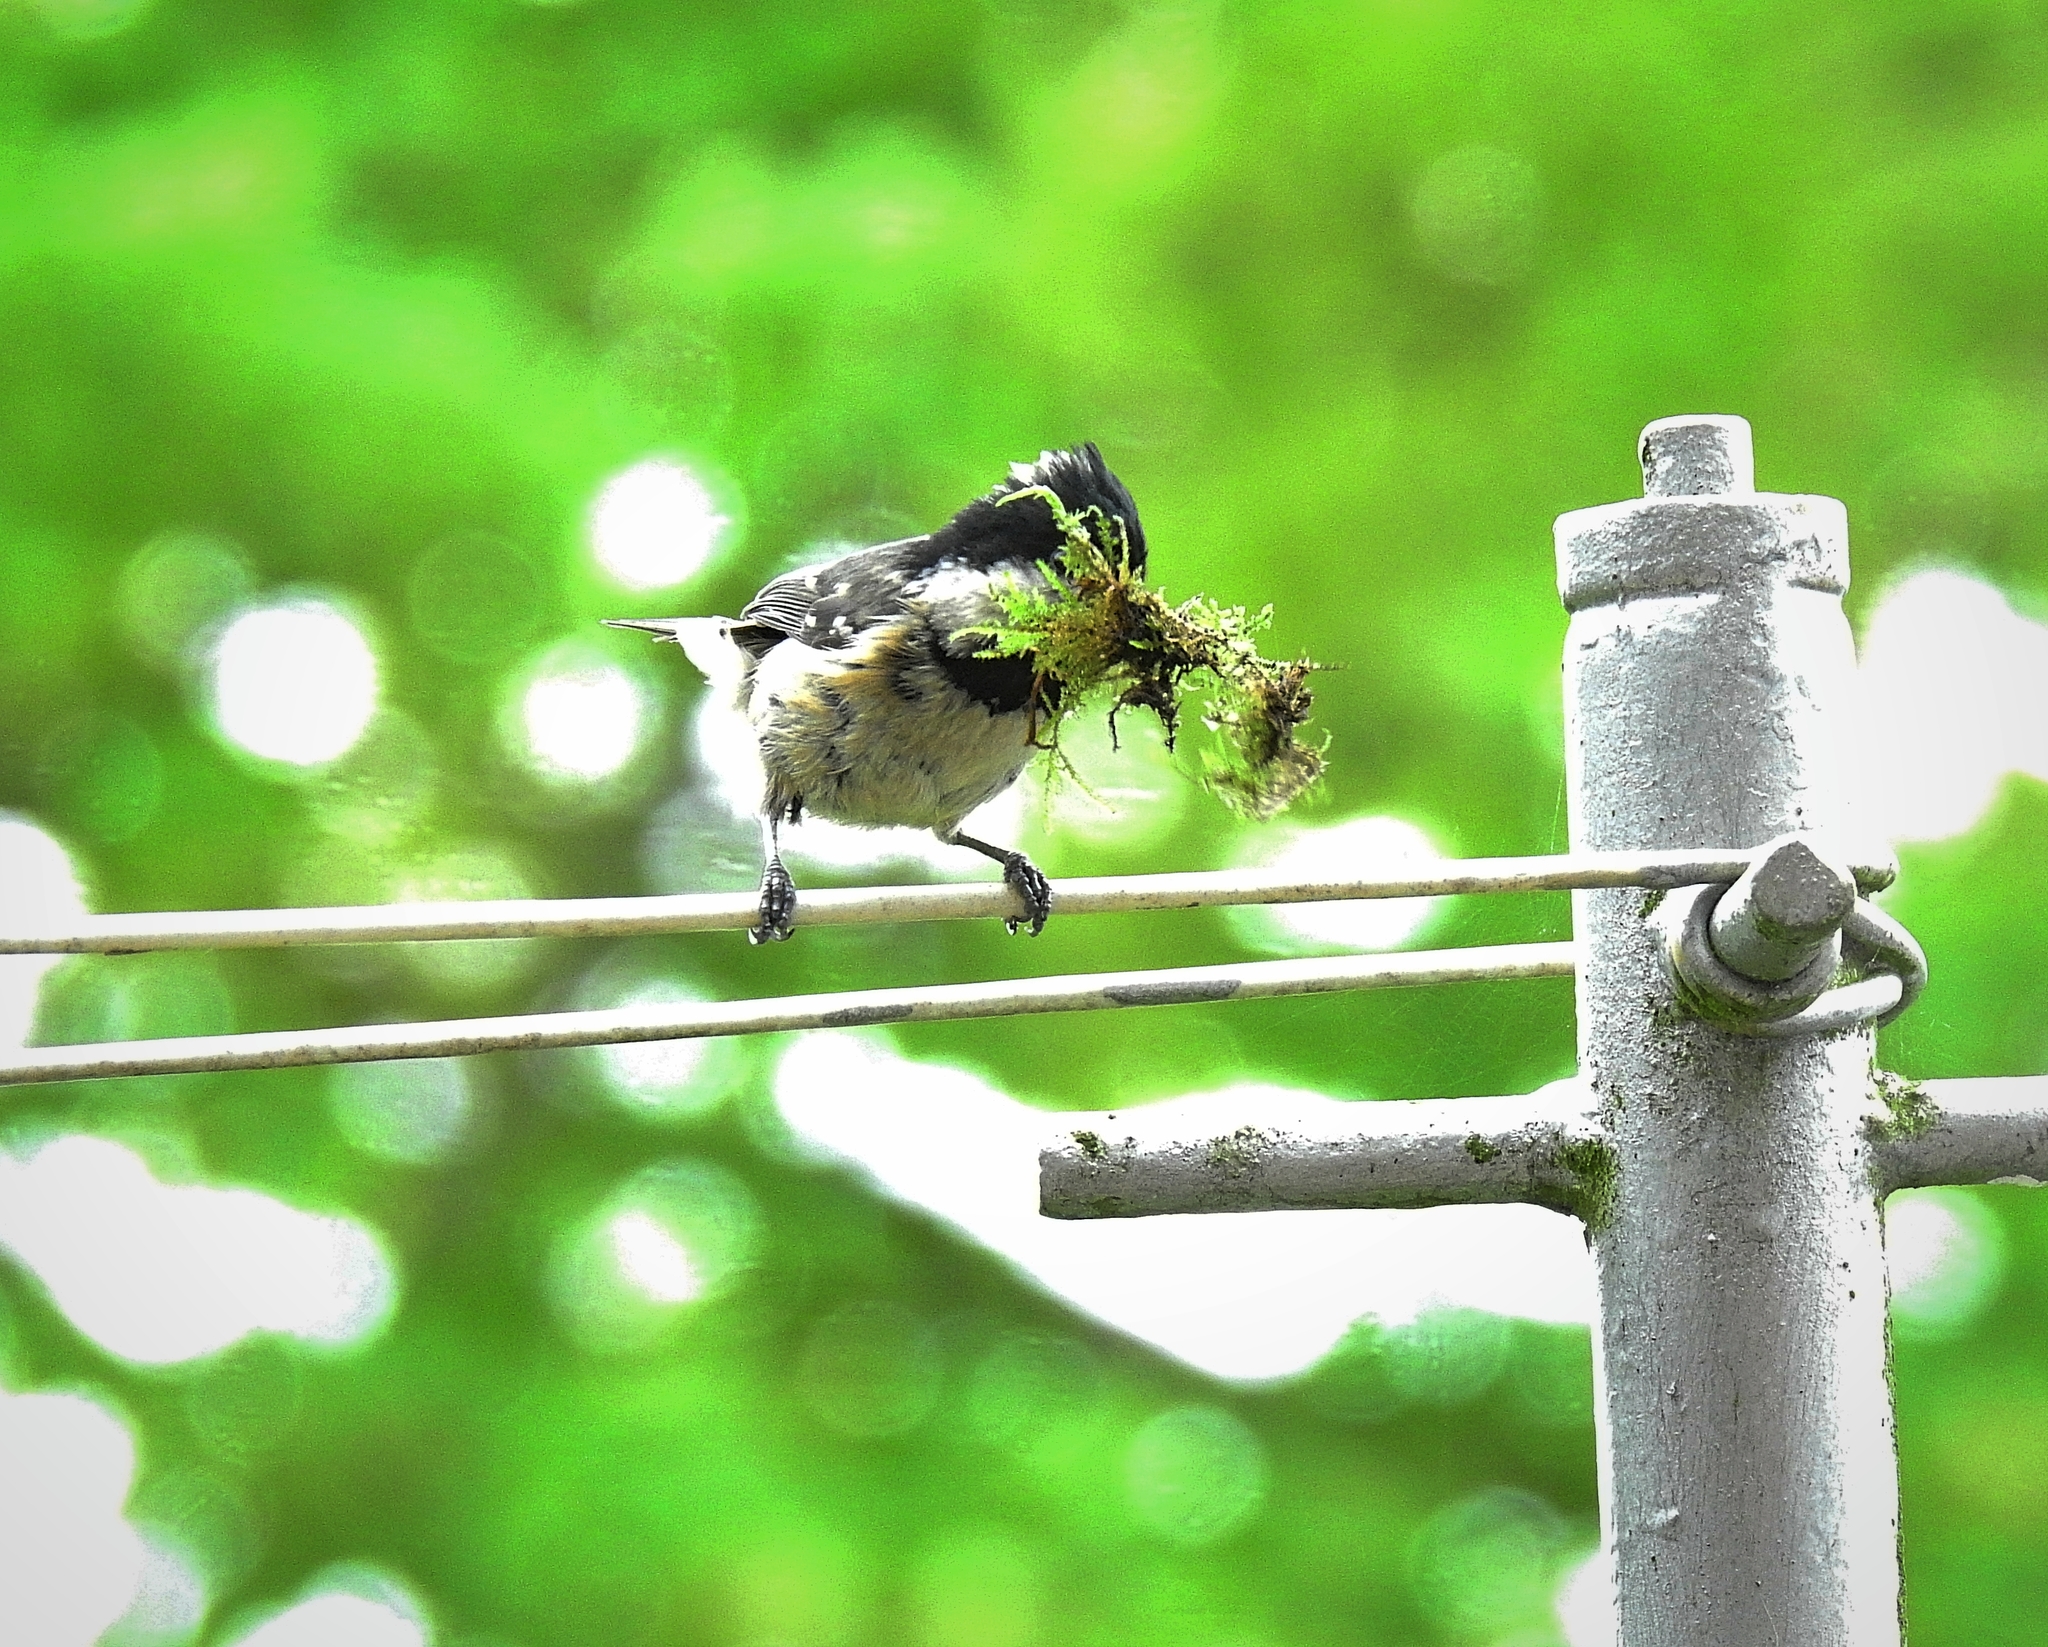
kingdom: Animalia
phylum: Chordata
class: Aves
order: Passeriformes
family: Paridae
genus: Periparus
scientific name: Periparus ater
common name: Coal tit
